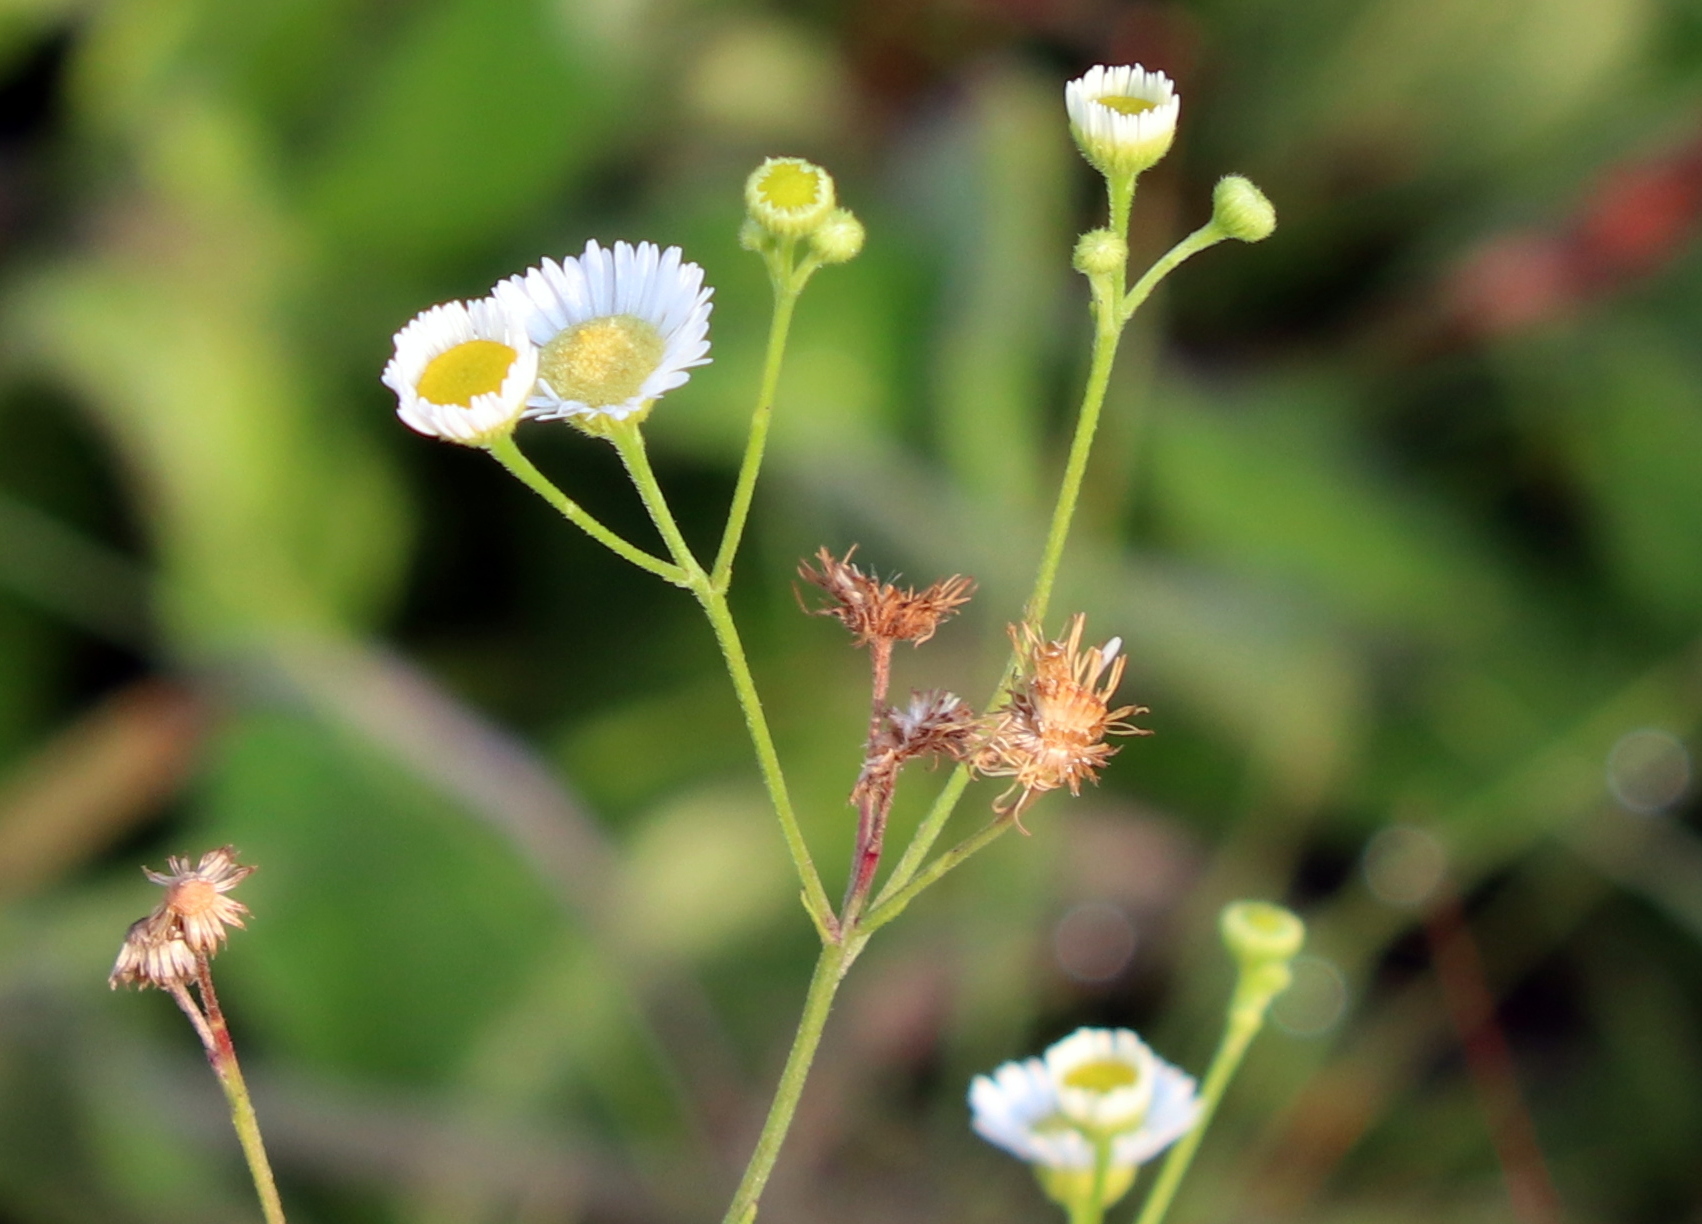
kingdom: Plantae
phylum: Tracheophyta
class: Magnoliopsida
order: Asterales
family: Asteraceae
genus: Erigeron
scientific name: Erigeron strigosus
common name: Common eastern fleabane
